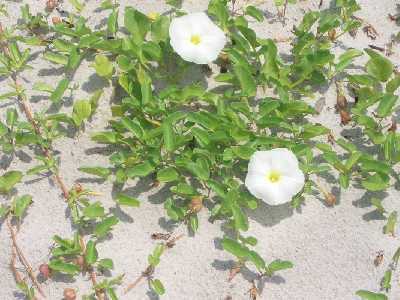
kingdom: Plantae
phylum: Tracheophyta
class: Magnoliopsida
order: Solanales
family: Convolvulaceae
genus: Ipomoea
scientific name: Ipomoea imperati
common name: Fiddle-leaf morning-glory
